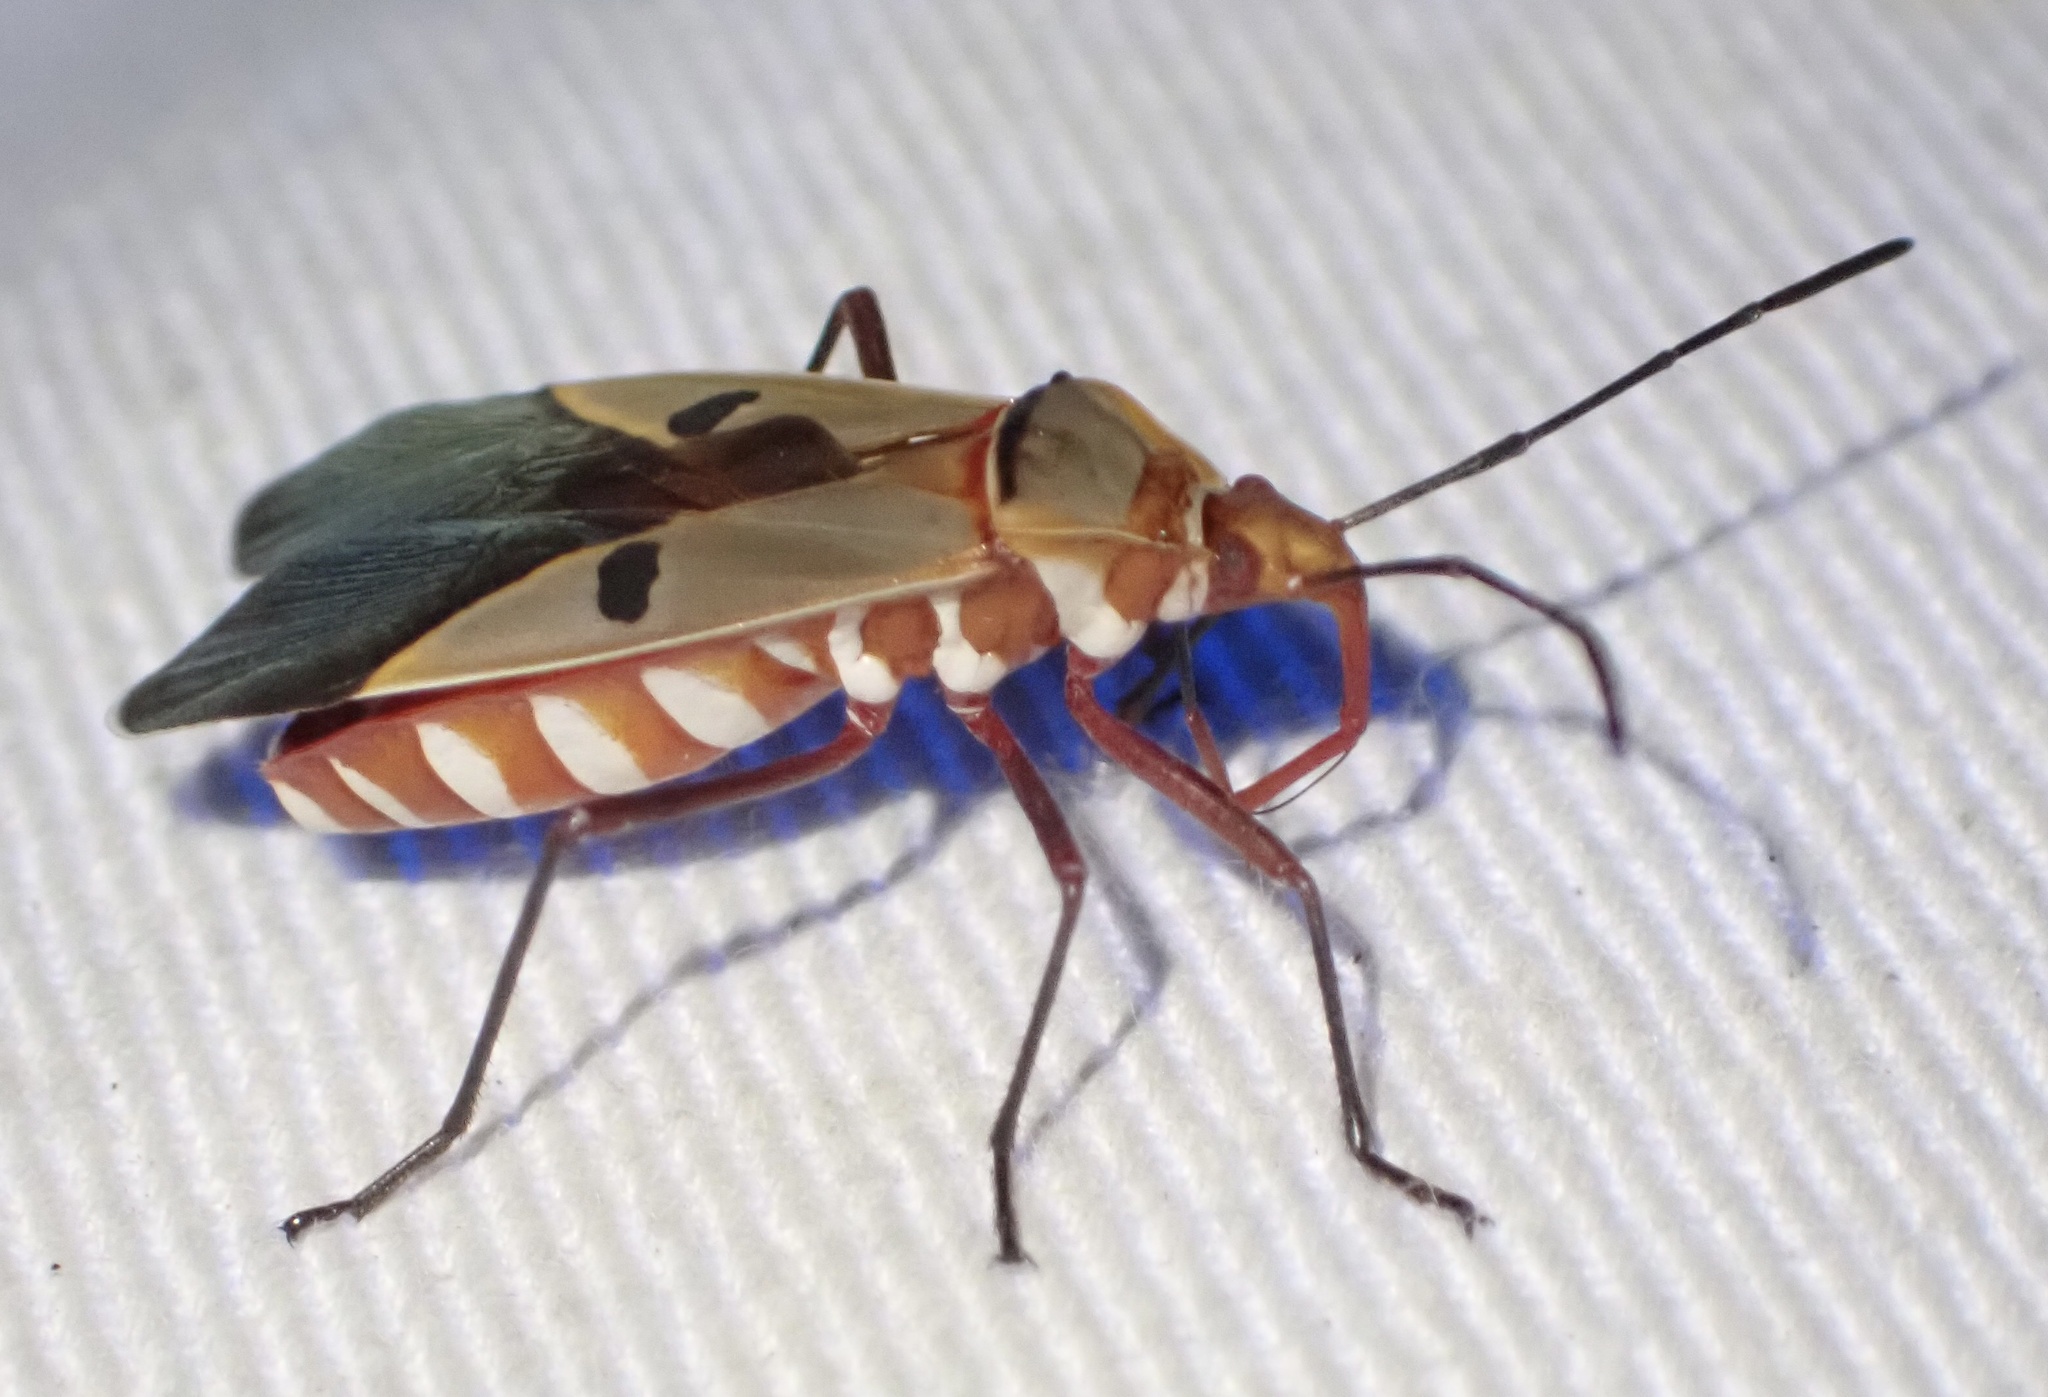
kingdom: Animalia
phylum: Arthropoda
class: Insecta
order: Hemiptera
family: Pyrrhocoridae
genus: Dysdercus
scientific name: Dysdercus superstitiosus
